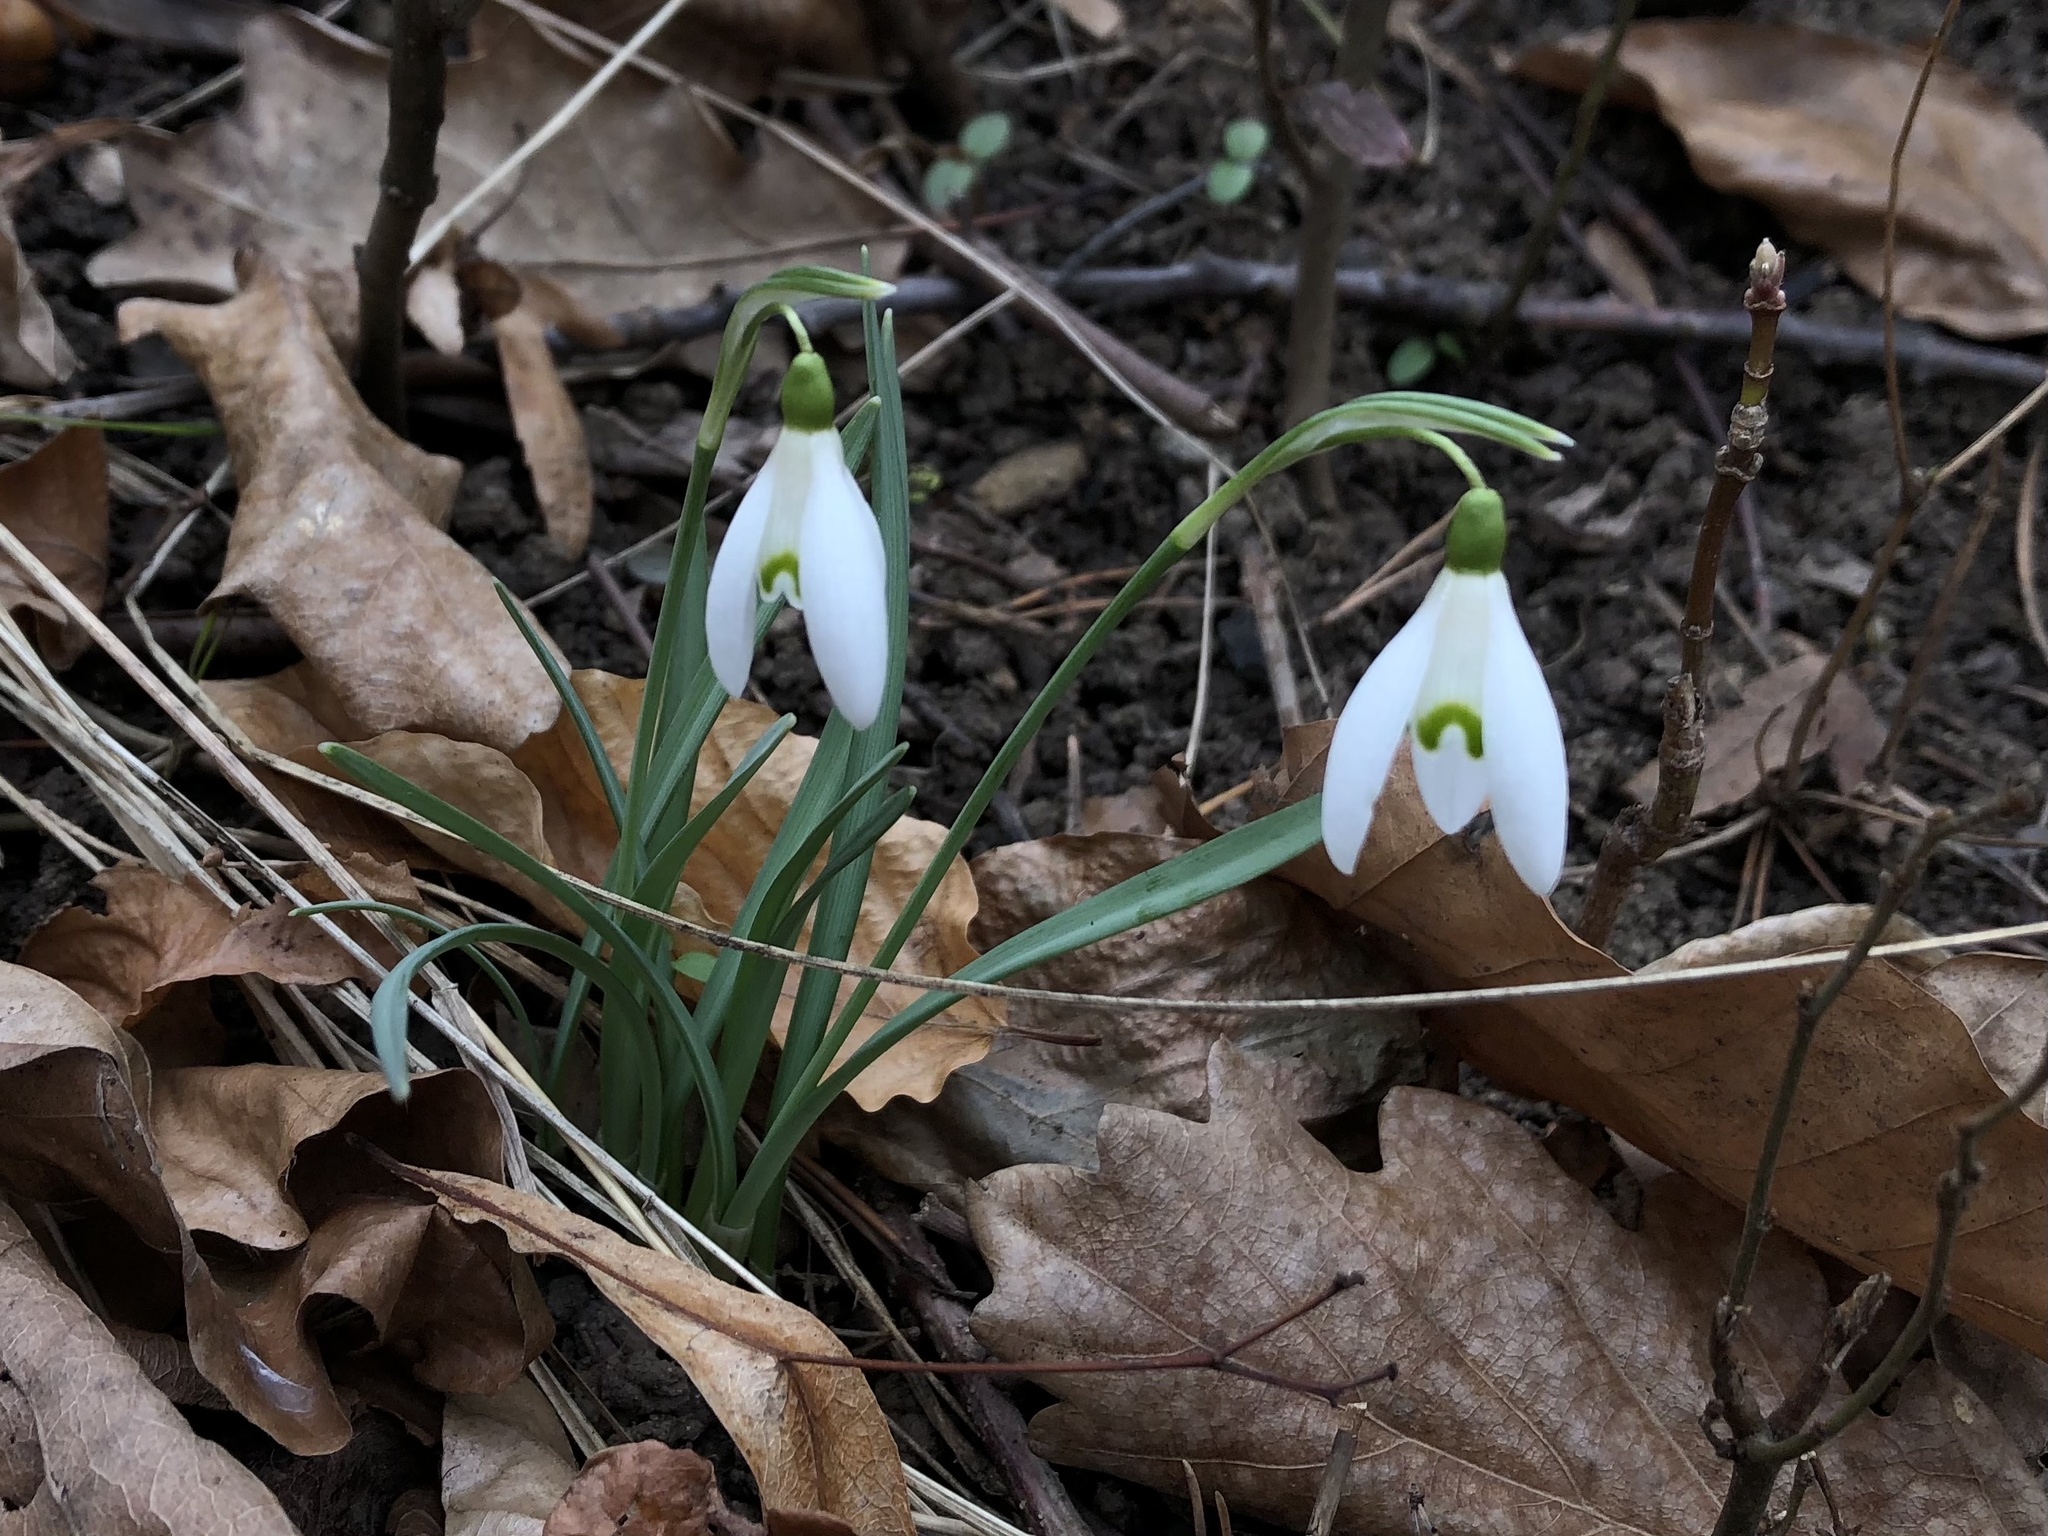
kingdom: Plantae
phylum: Tracheophyta
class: Liliopsida
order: Asparagales
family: Amaryllidaceae
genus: Galanthus
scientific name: Galanthus nivalis
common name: Snowdrop
